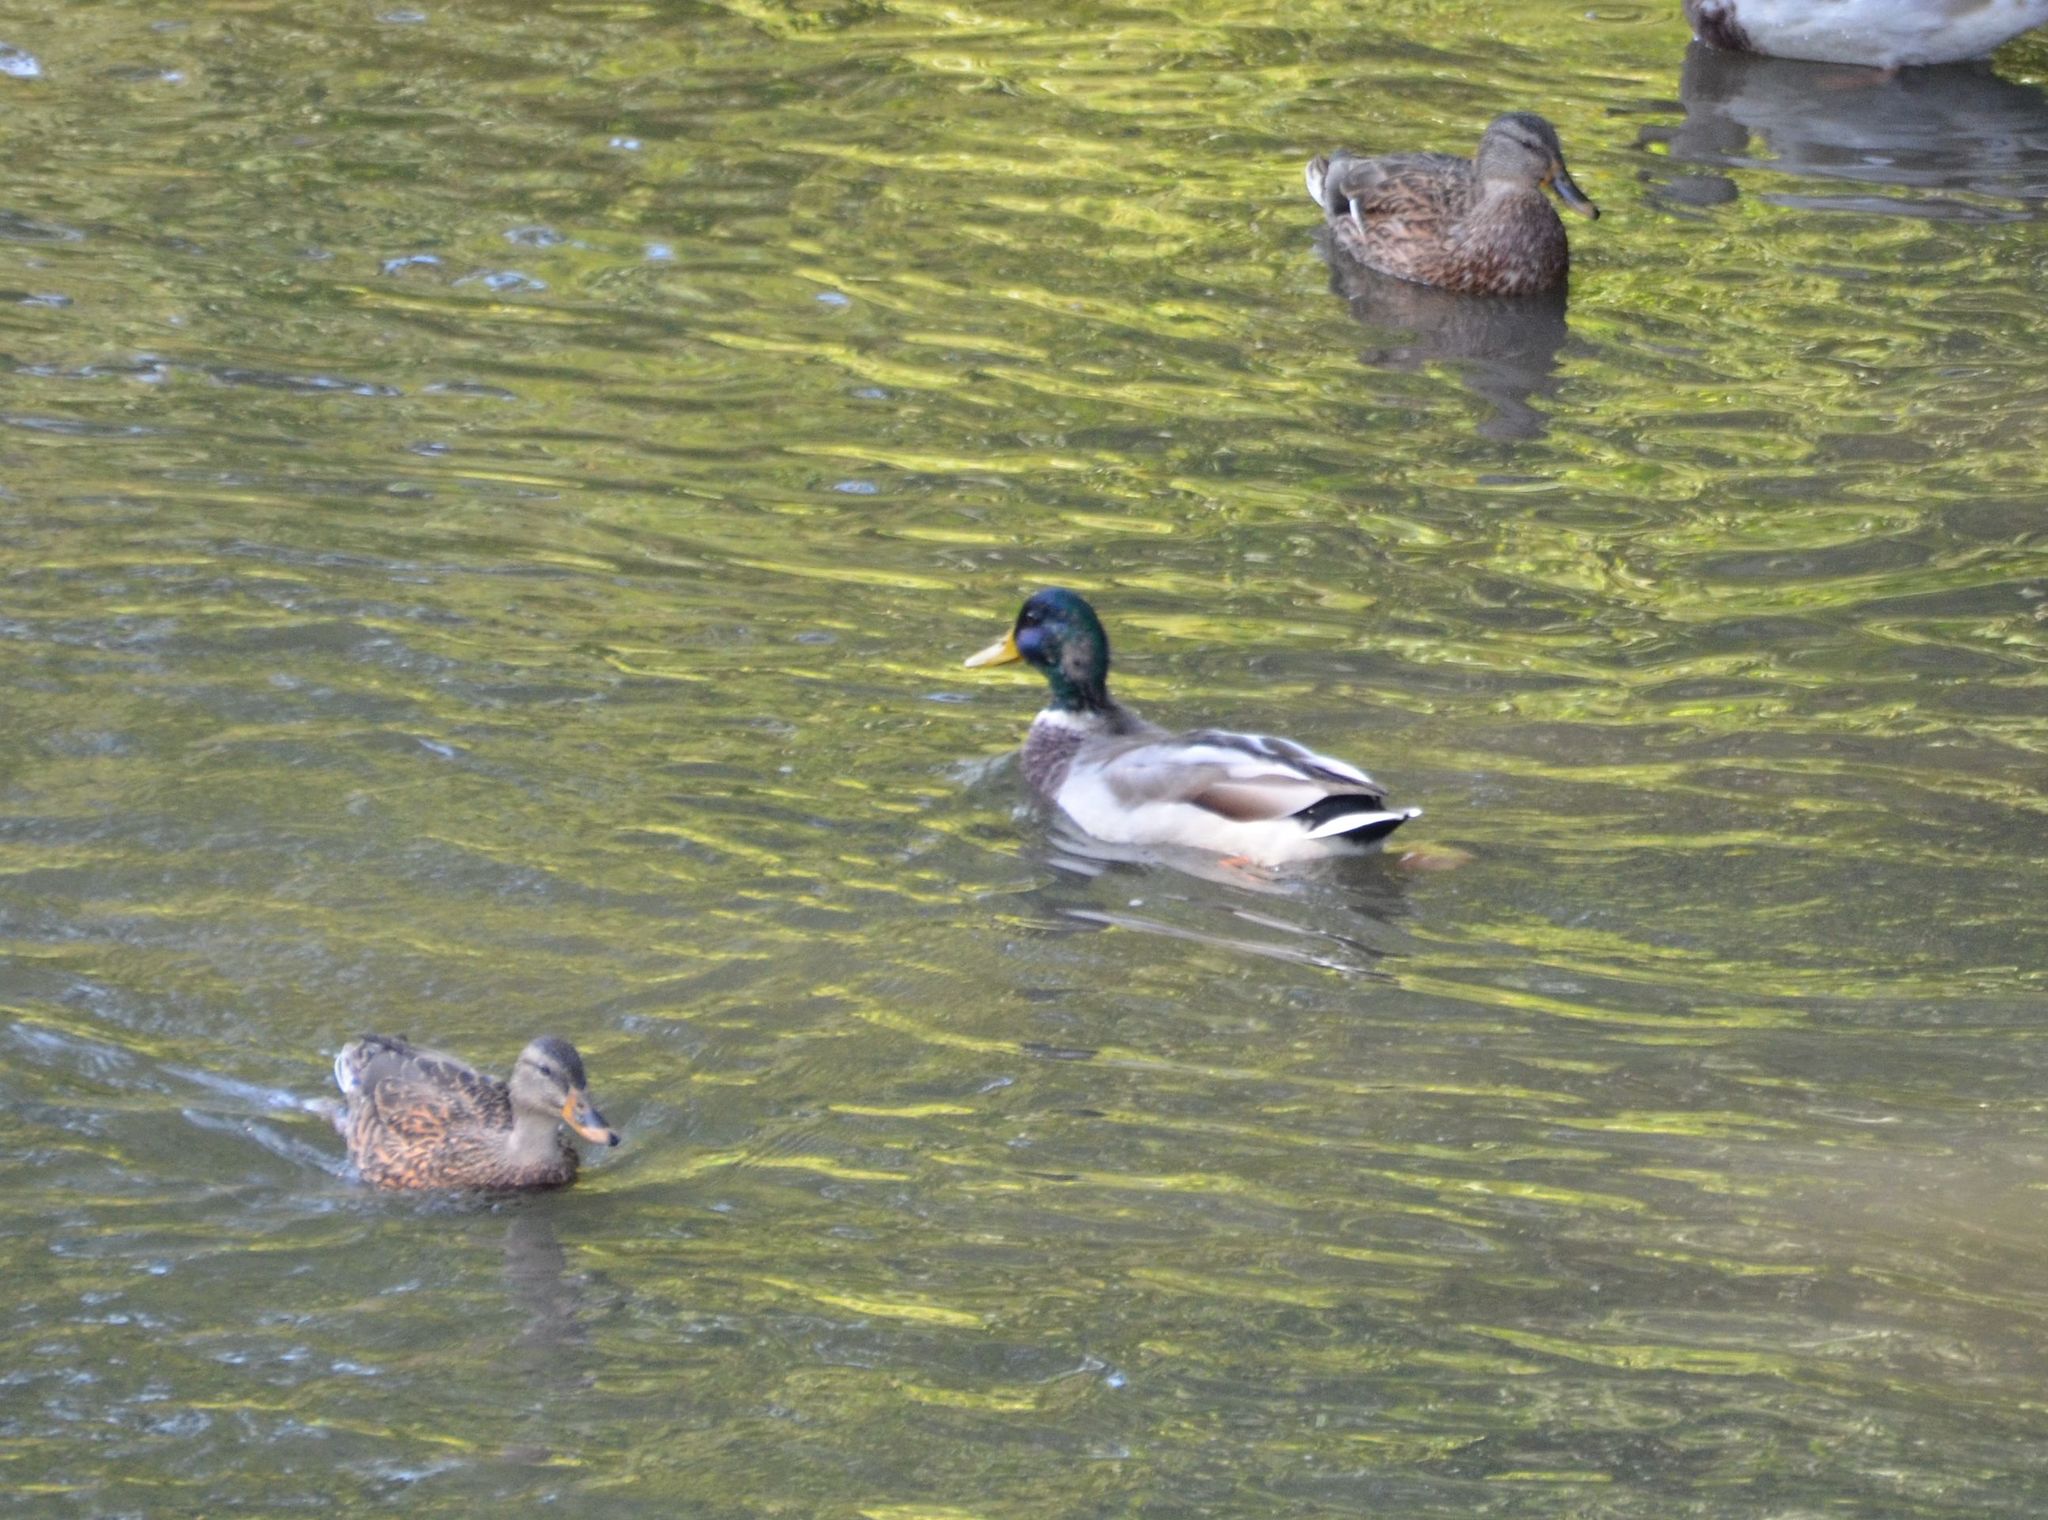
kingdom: Animalia
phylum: Chordata
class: Aves
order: Anseriformes
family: Anatidae
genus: Anas
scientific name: Anas platyrhynchos
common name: Mallard
